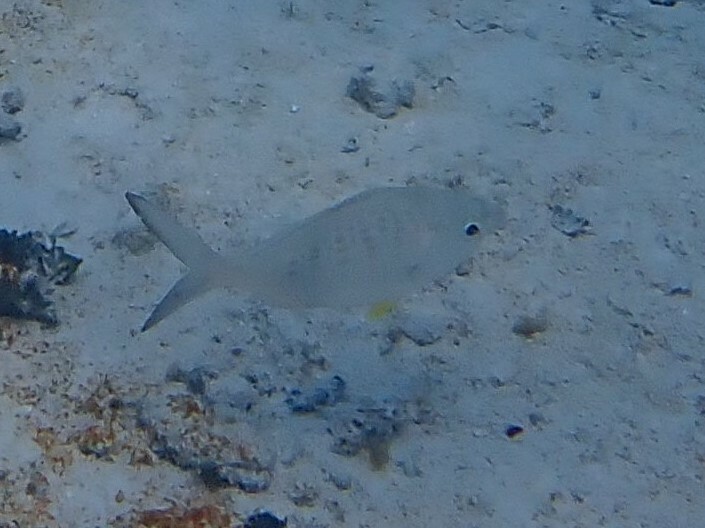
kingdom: Animalia
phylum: Chordata
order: Perciformes
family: Gerreidae
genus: Gerres
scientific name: Gerres cinereus
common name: Hedow
